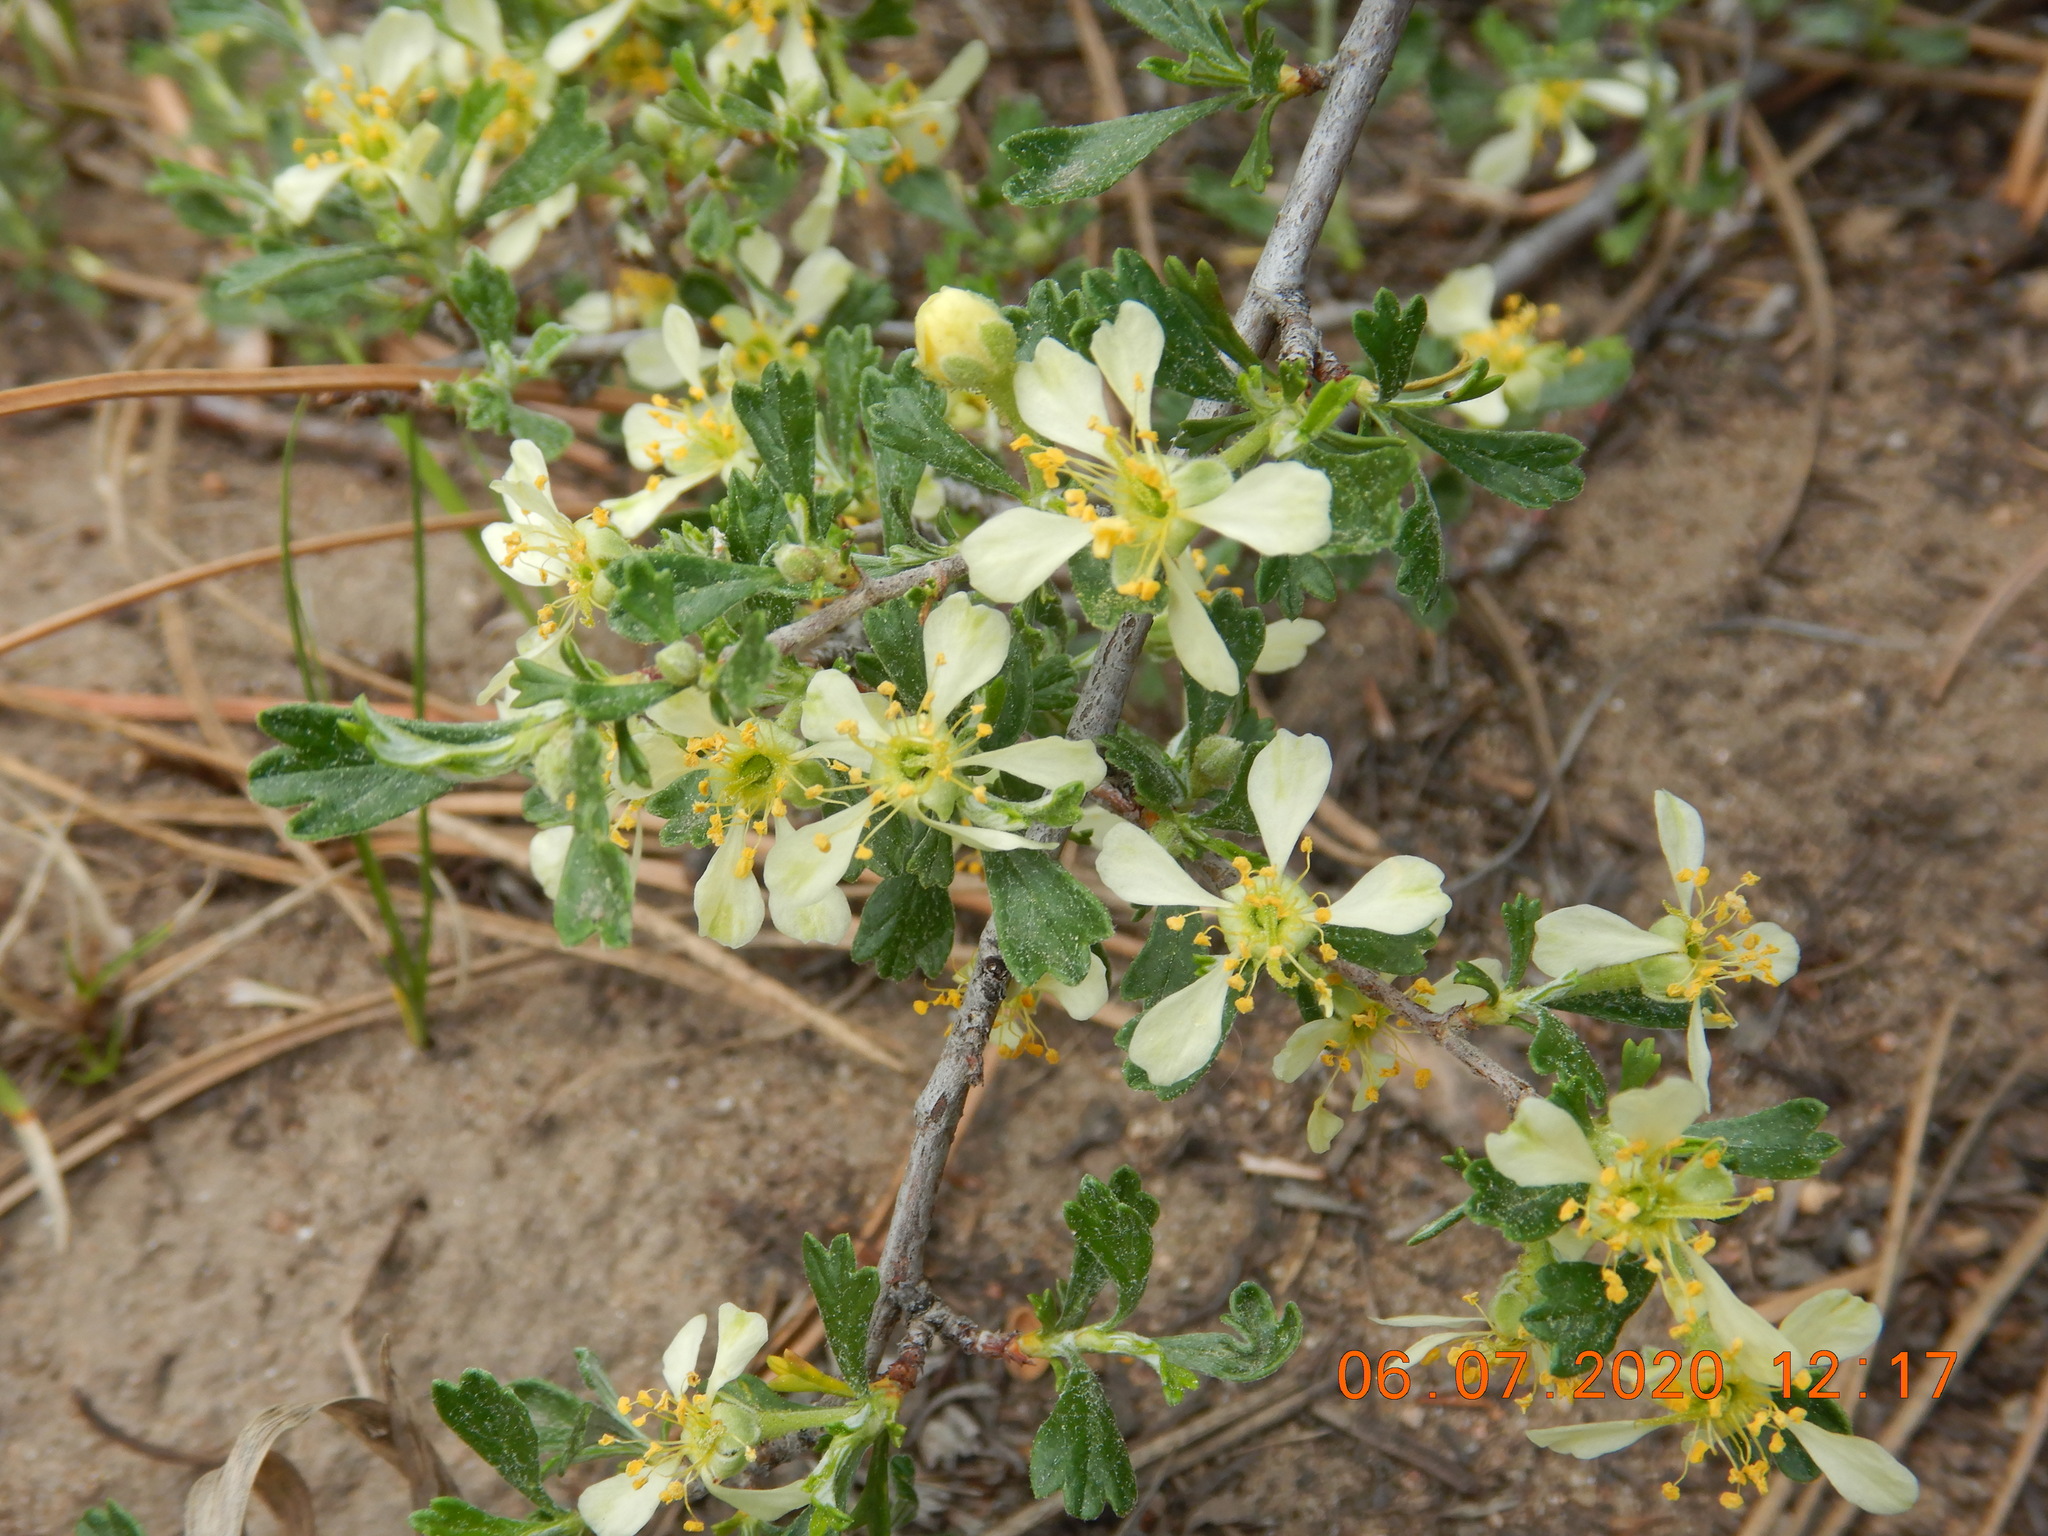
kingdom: Plantae
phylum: Tracheophyta
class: Magnoliopsida
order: Rosales
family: Rosaceae
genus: Purshia
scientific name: Purshia tridentata
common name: Antelope bitterbrush
